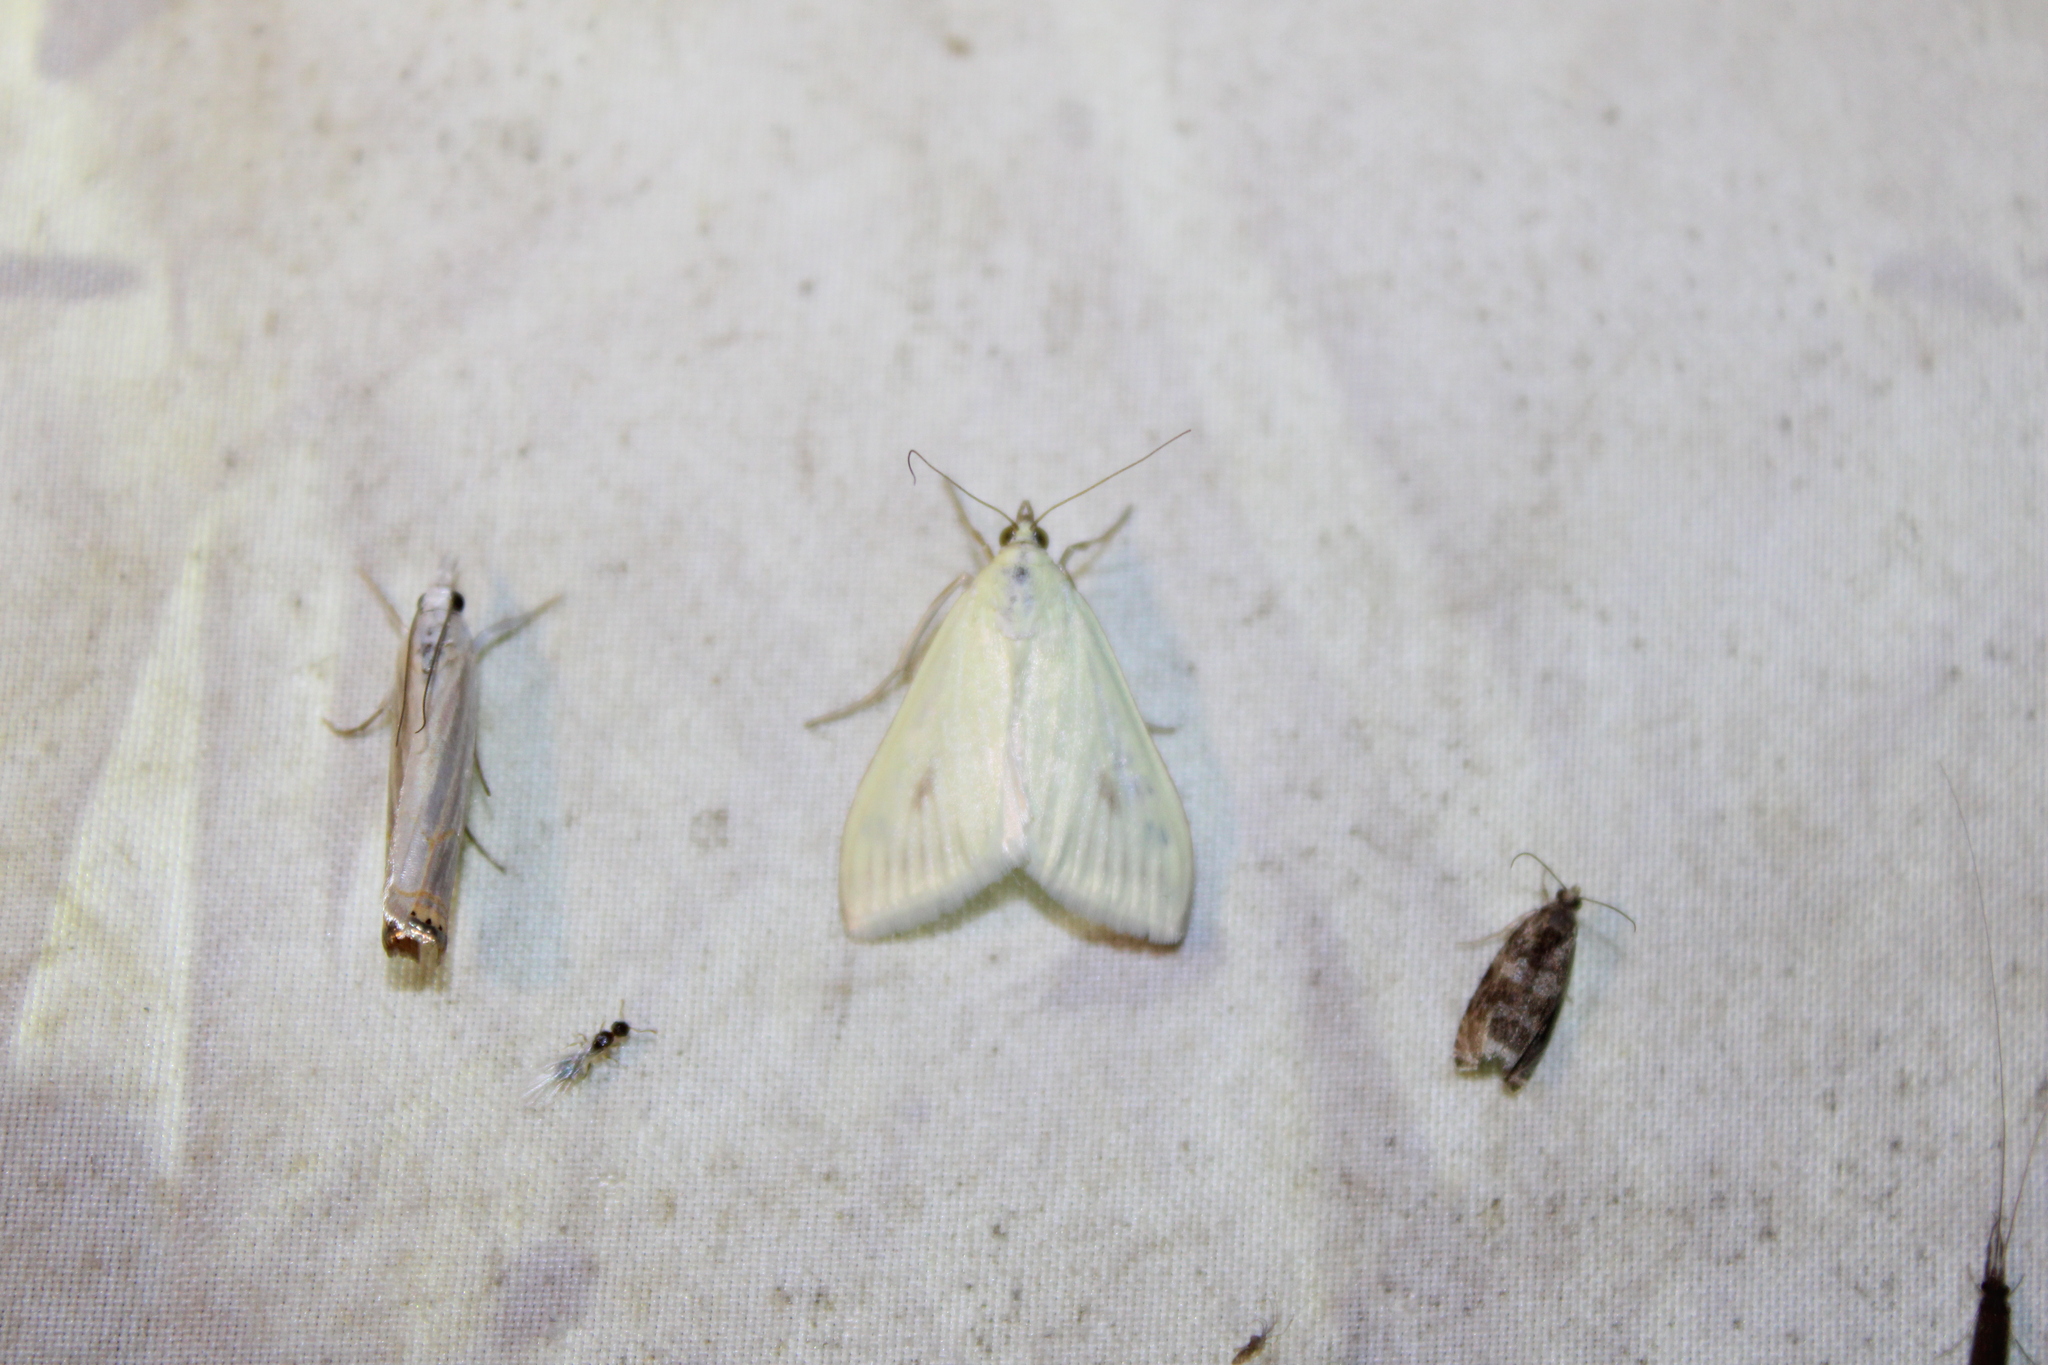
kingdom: Animalia
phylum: Arthropoda
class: Insecta
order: Lepidoptera
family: Crambidae
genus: Sitochroa
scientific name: Sitochroa palealis
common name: Greenish-yellow sitochroa moth
